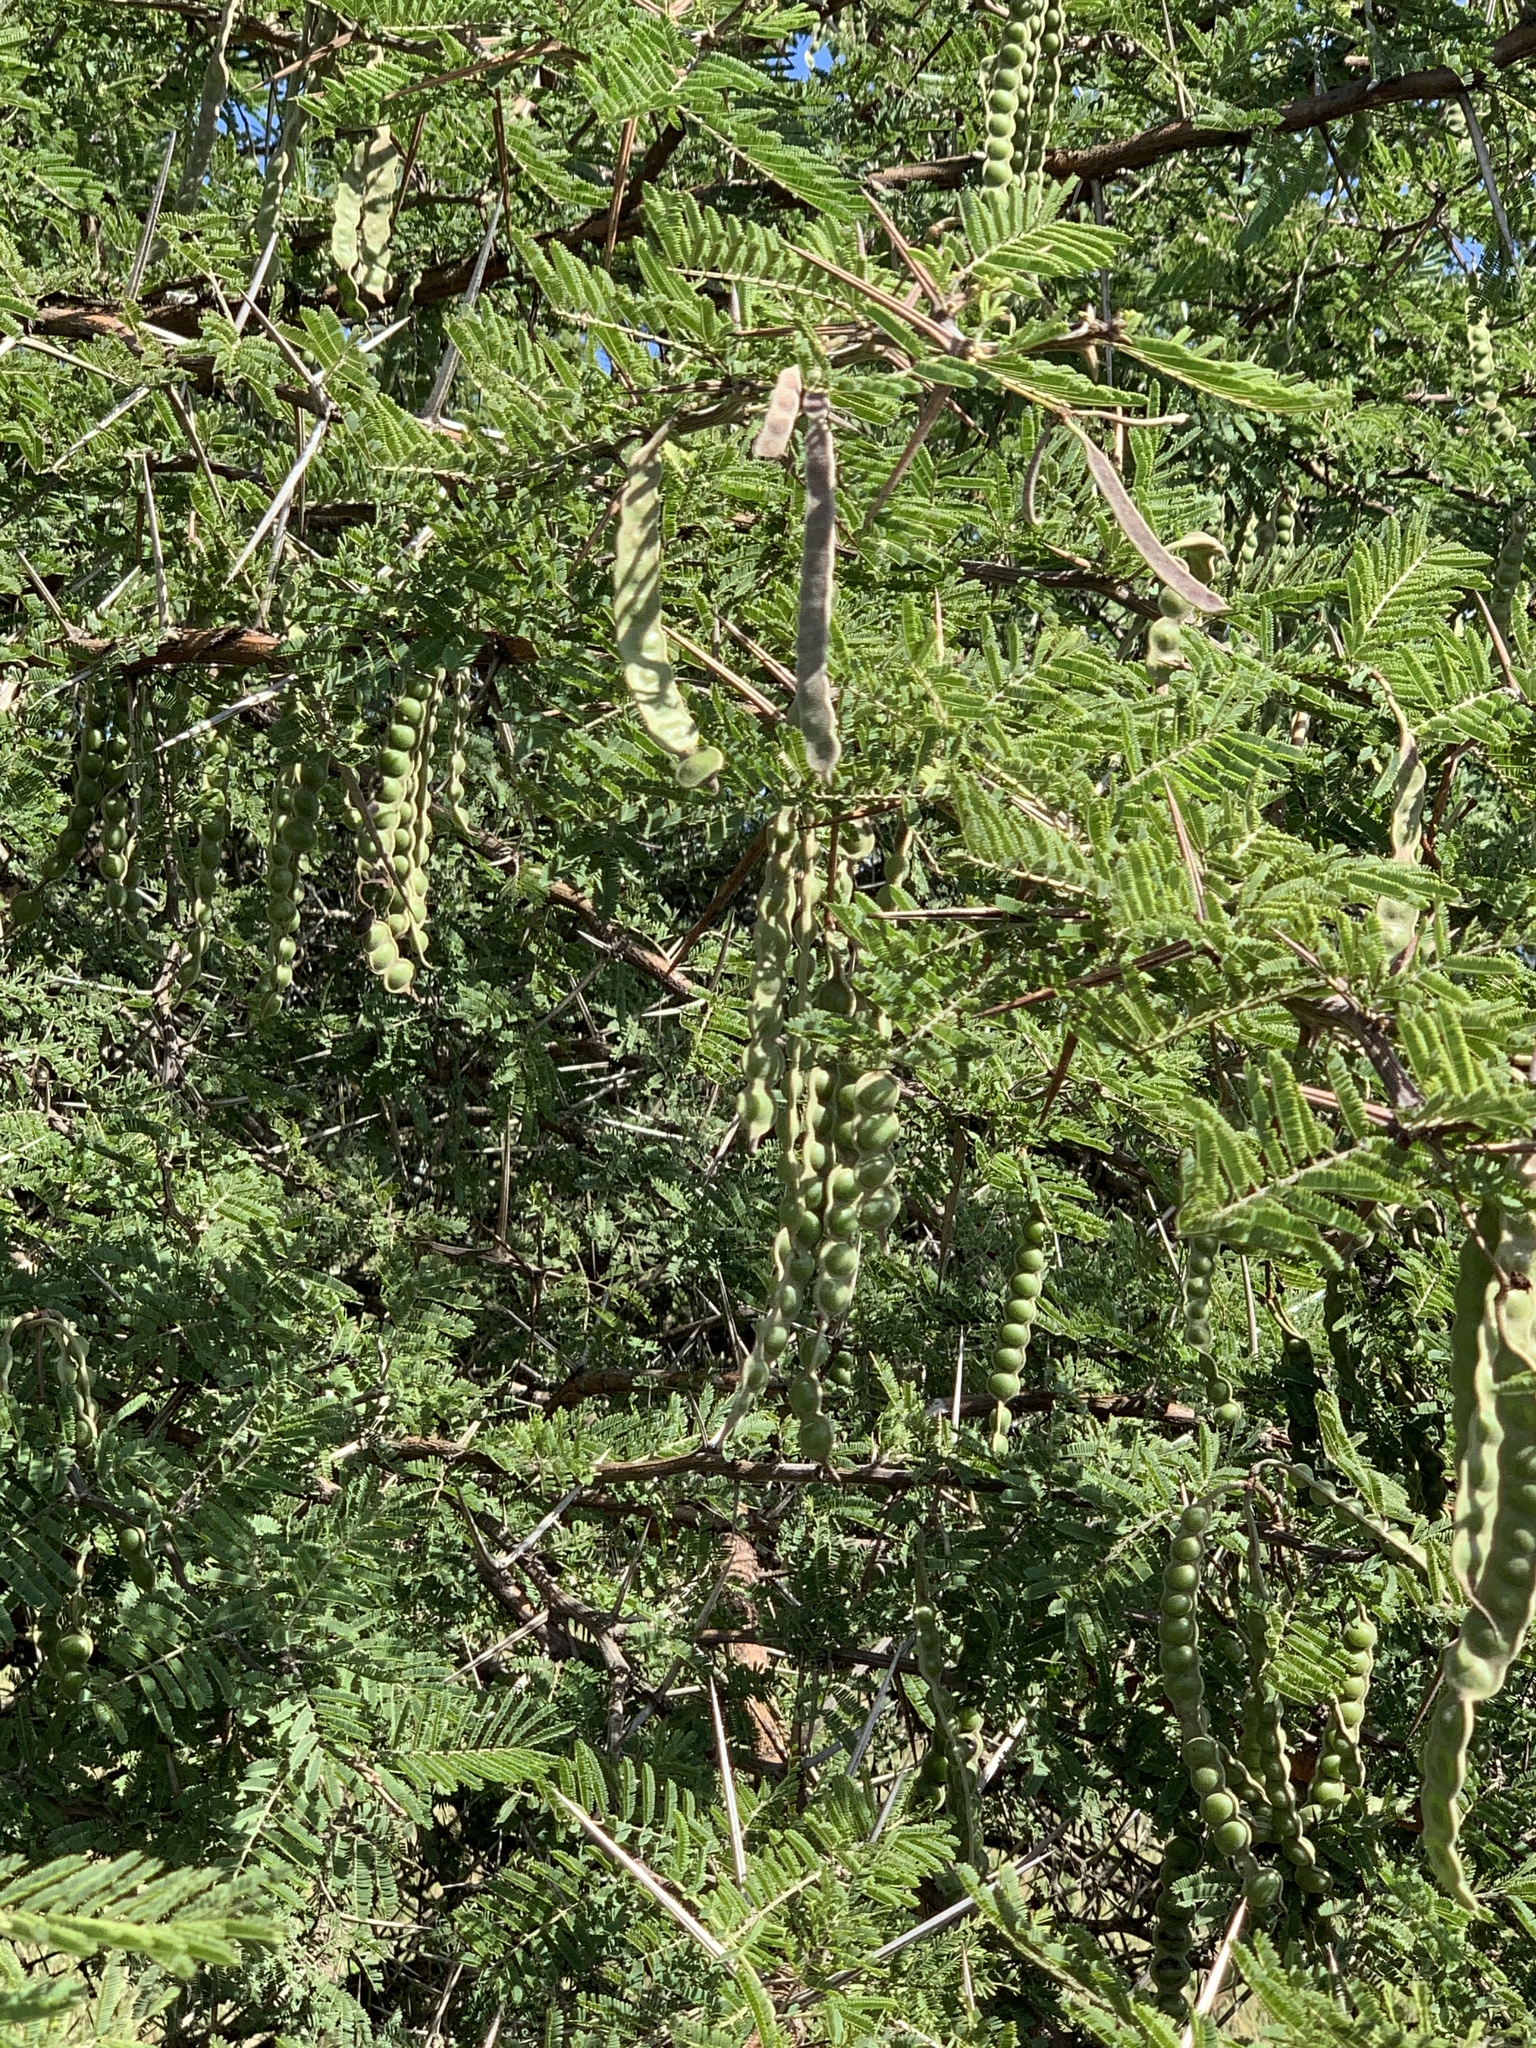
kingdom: Plantae
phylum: Tracheophyta
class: Magnoliopsida
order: Fabales
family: Fabaceae
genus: Vachellia
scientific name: Vachellia nilotica
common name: Arabic gumtree
